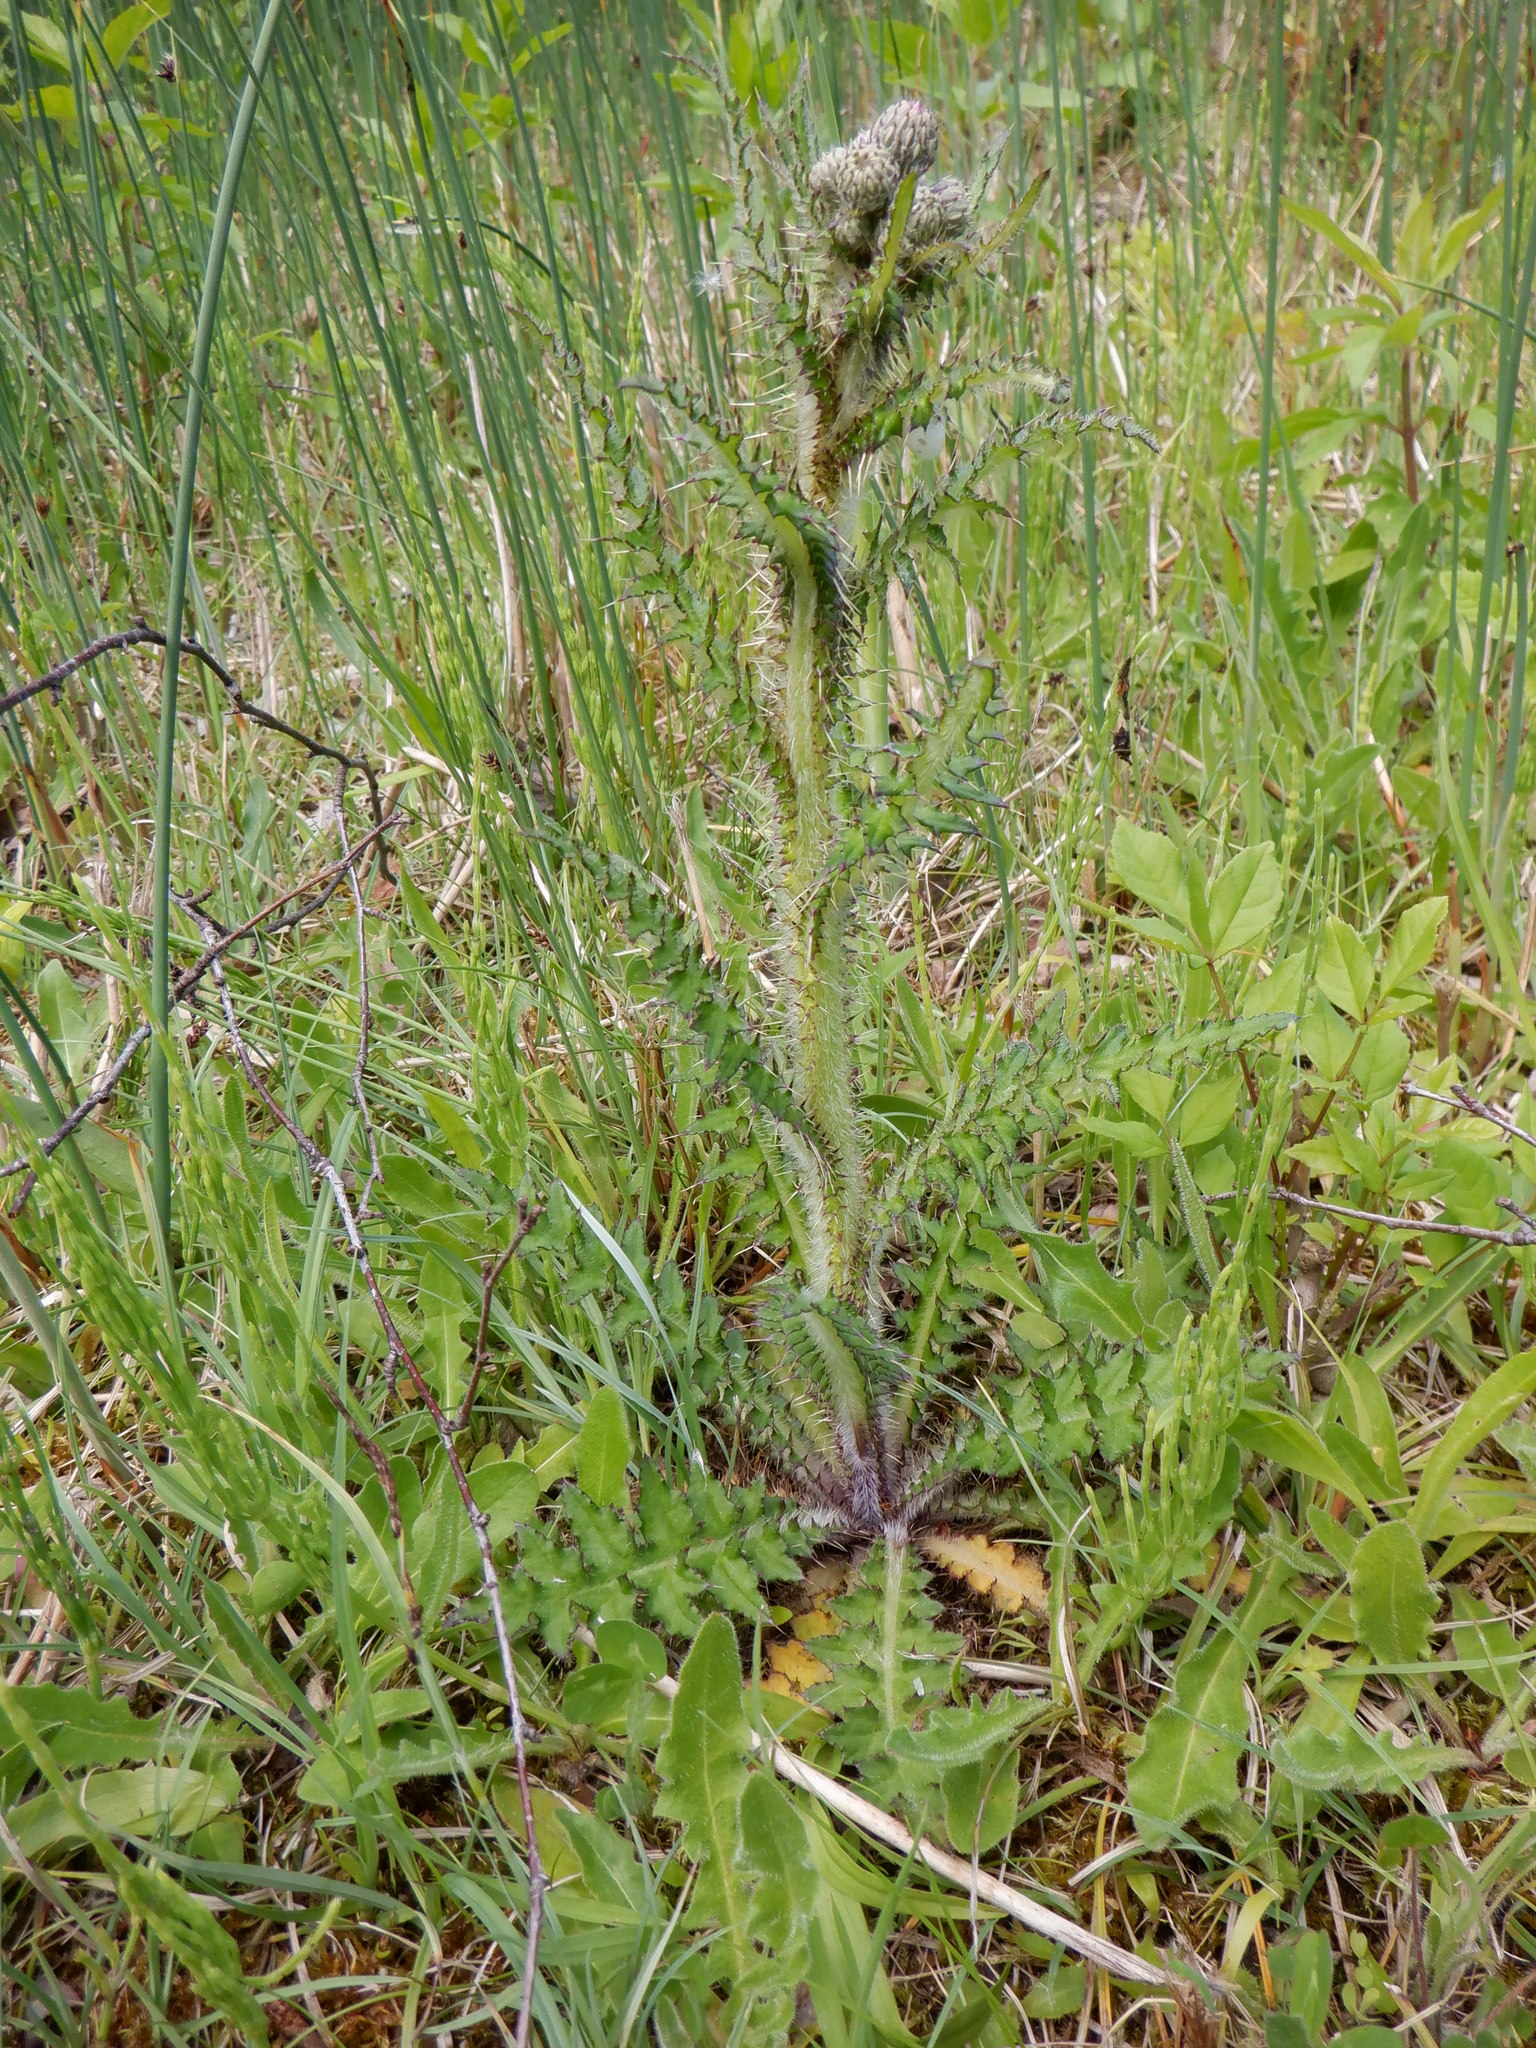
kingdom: Plantae
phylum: Tracheophyta
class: Magnoliopsida
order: Asterales
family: Asteraceae
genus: Cirsium
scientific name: Cirsium palustre
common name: Marsh thistle
